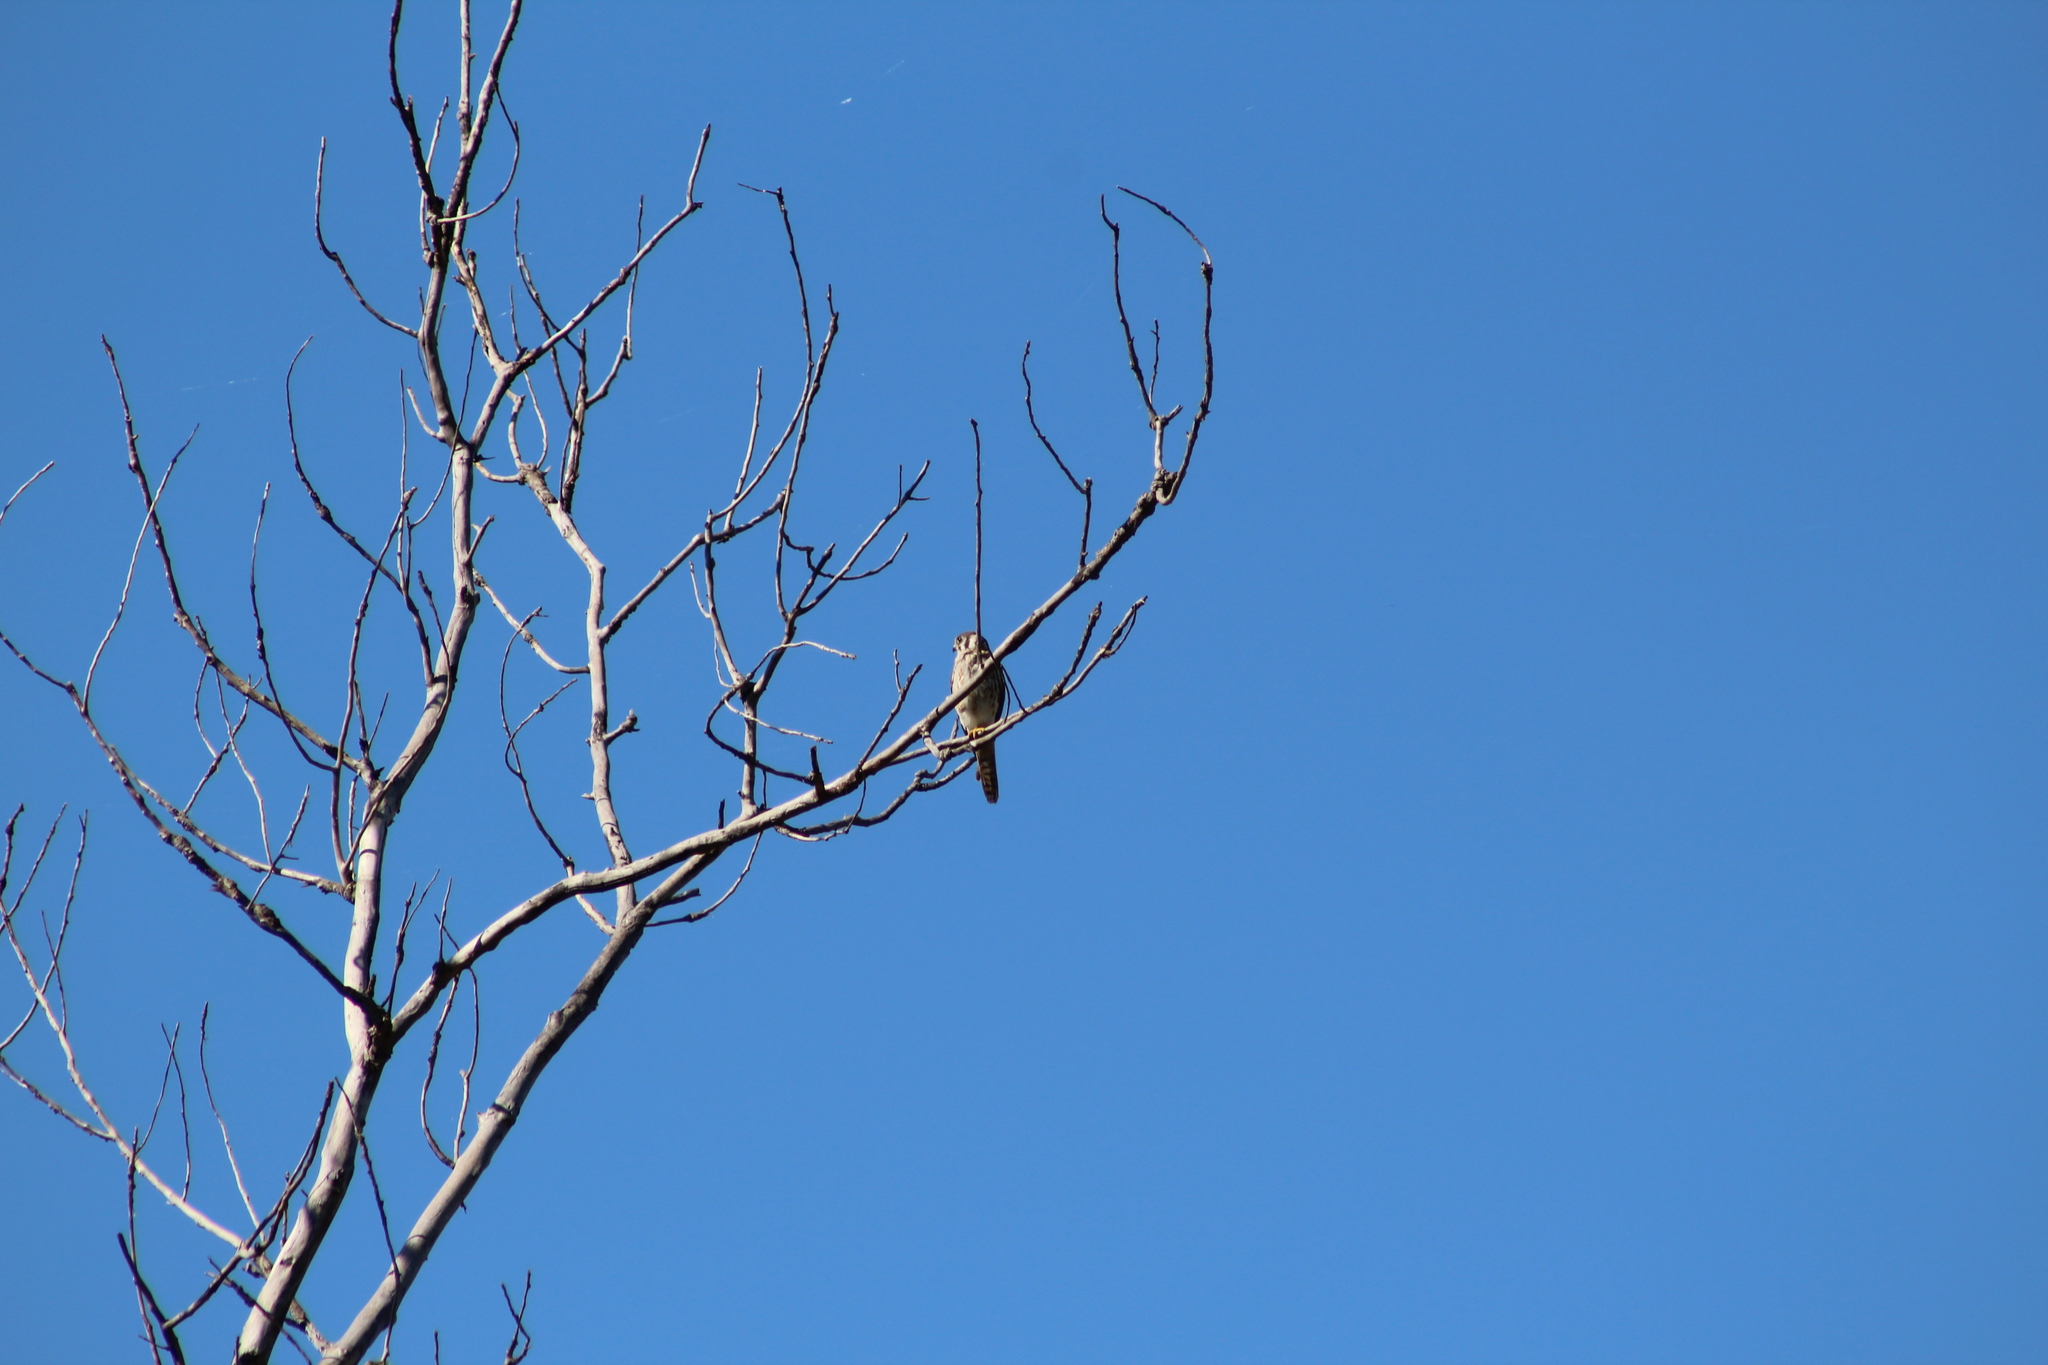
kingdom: Animalia
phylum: Chordata
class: Aves
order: Falconiformes
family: Falconidae
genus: Falco
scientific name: Falco sparverius
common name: American kestrel
